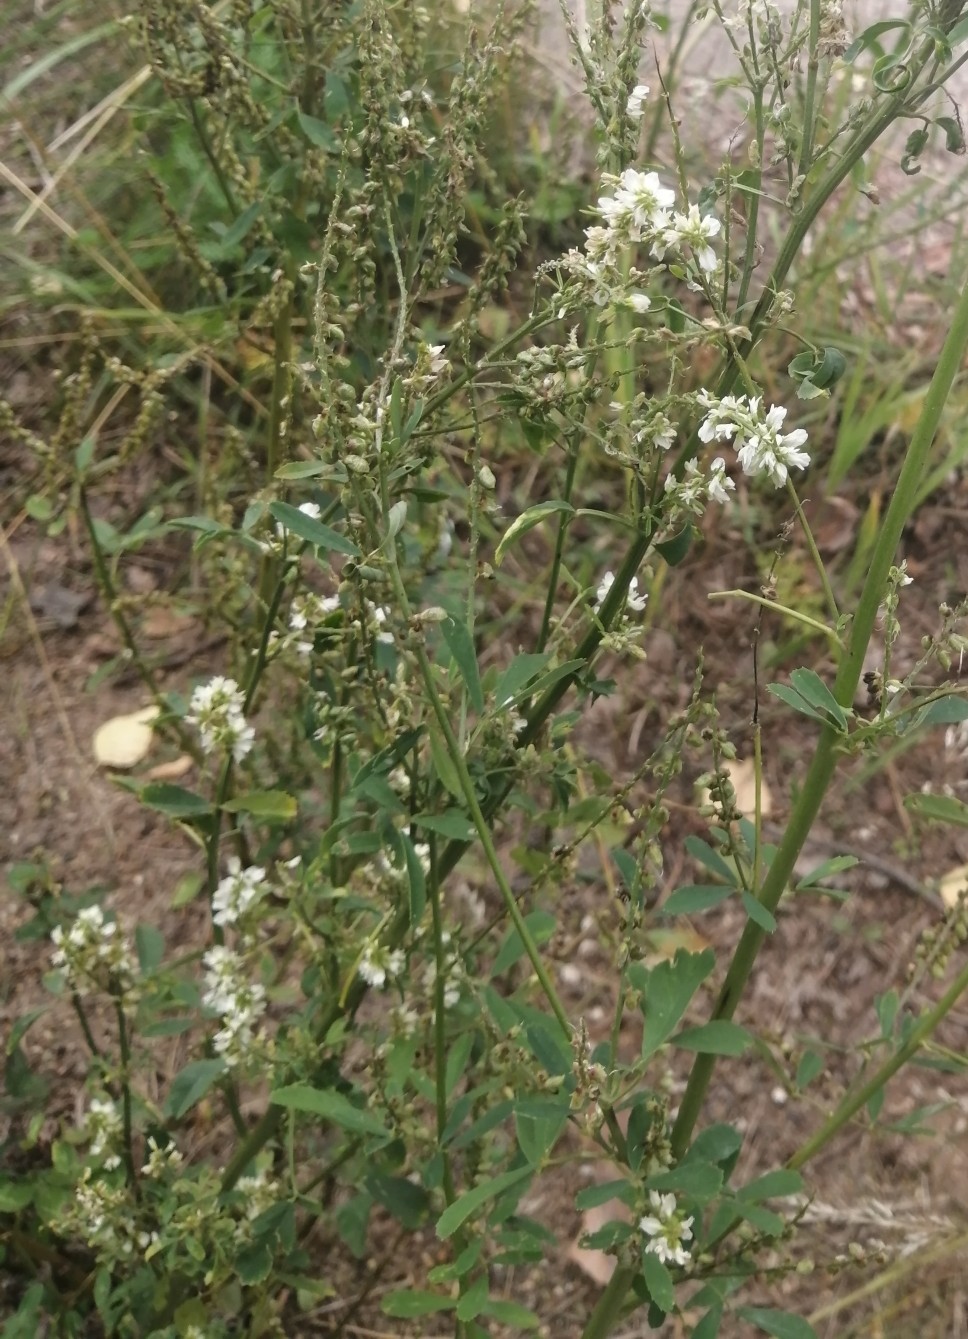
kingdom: Plantae
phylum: Tracheophyta
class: Magnoliopsida
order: Brassicales
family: Brassicaceae
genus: Berteroa
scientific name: Berteroa incana
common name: Hoary alison
